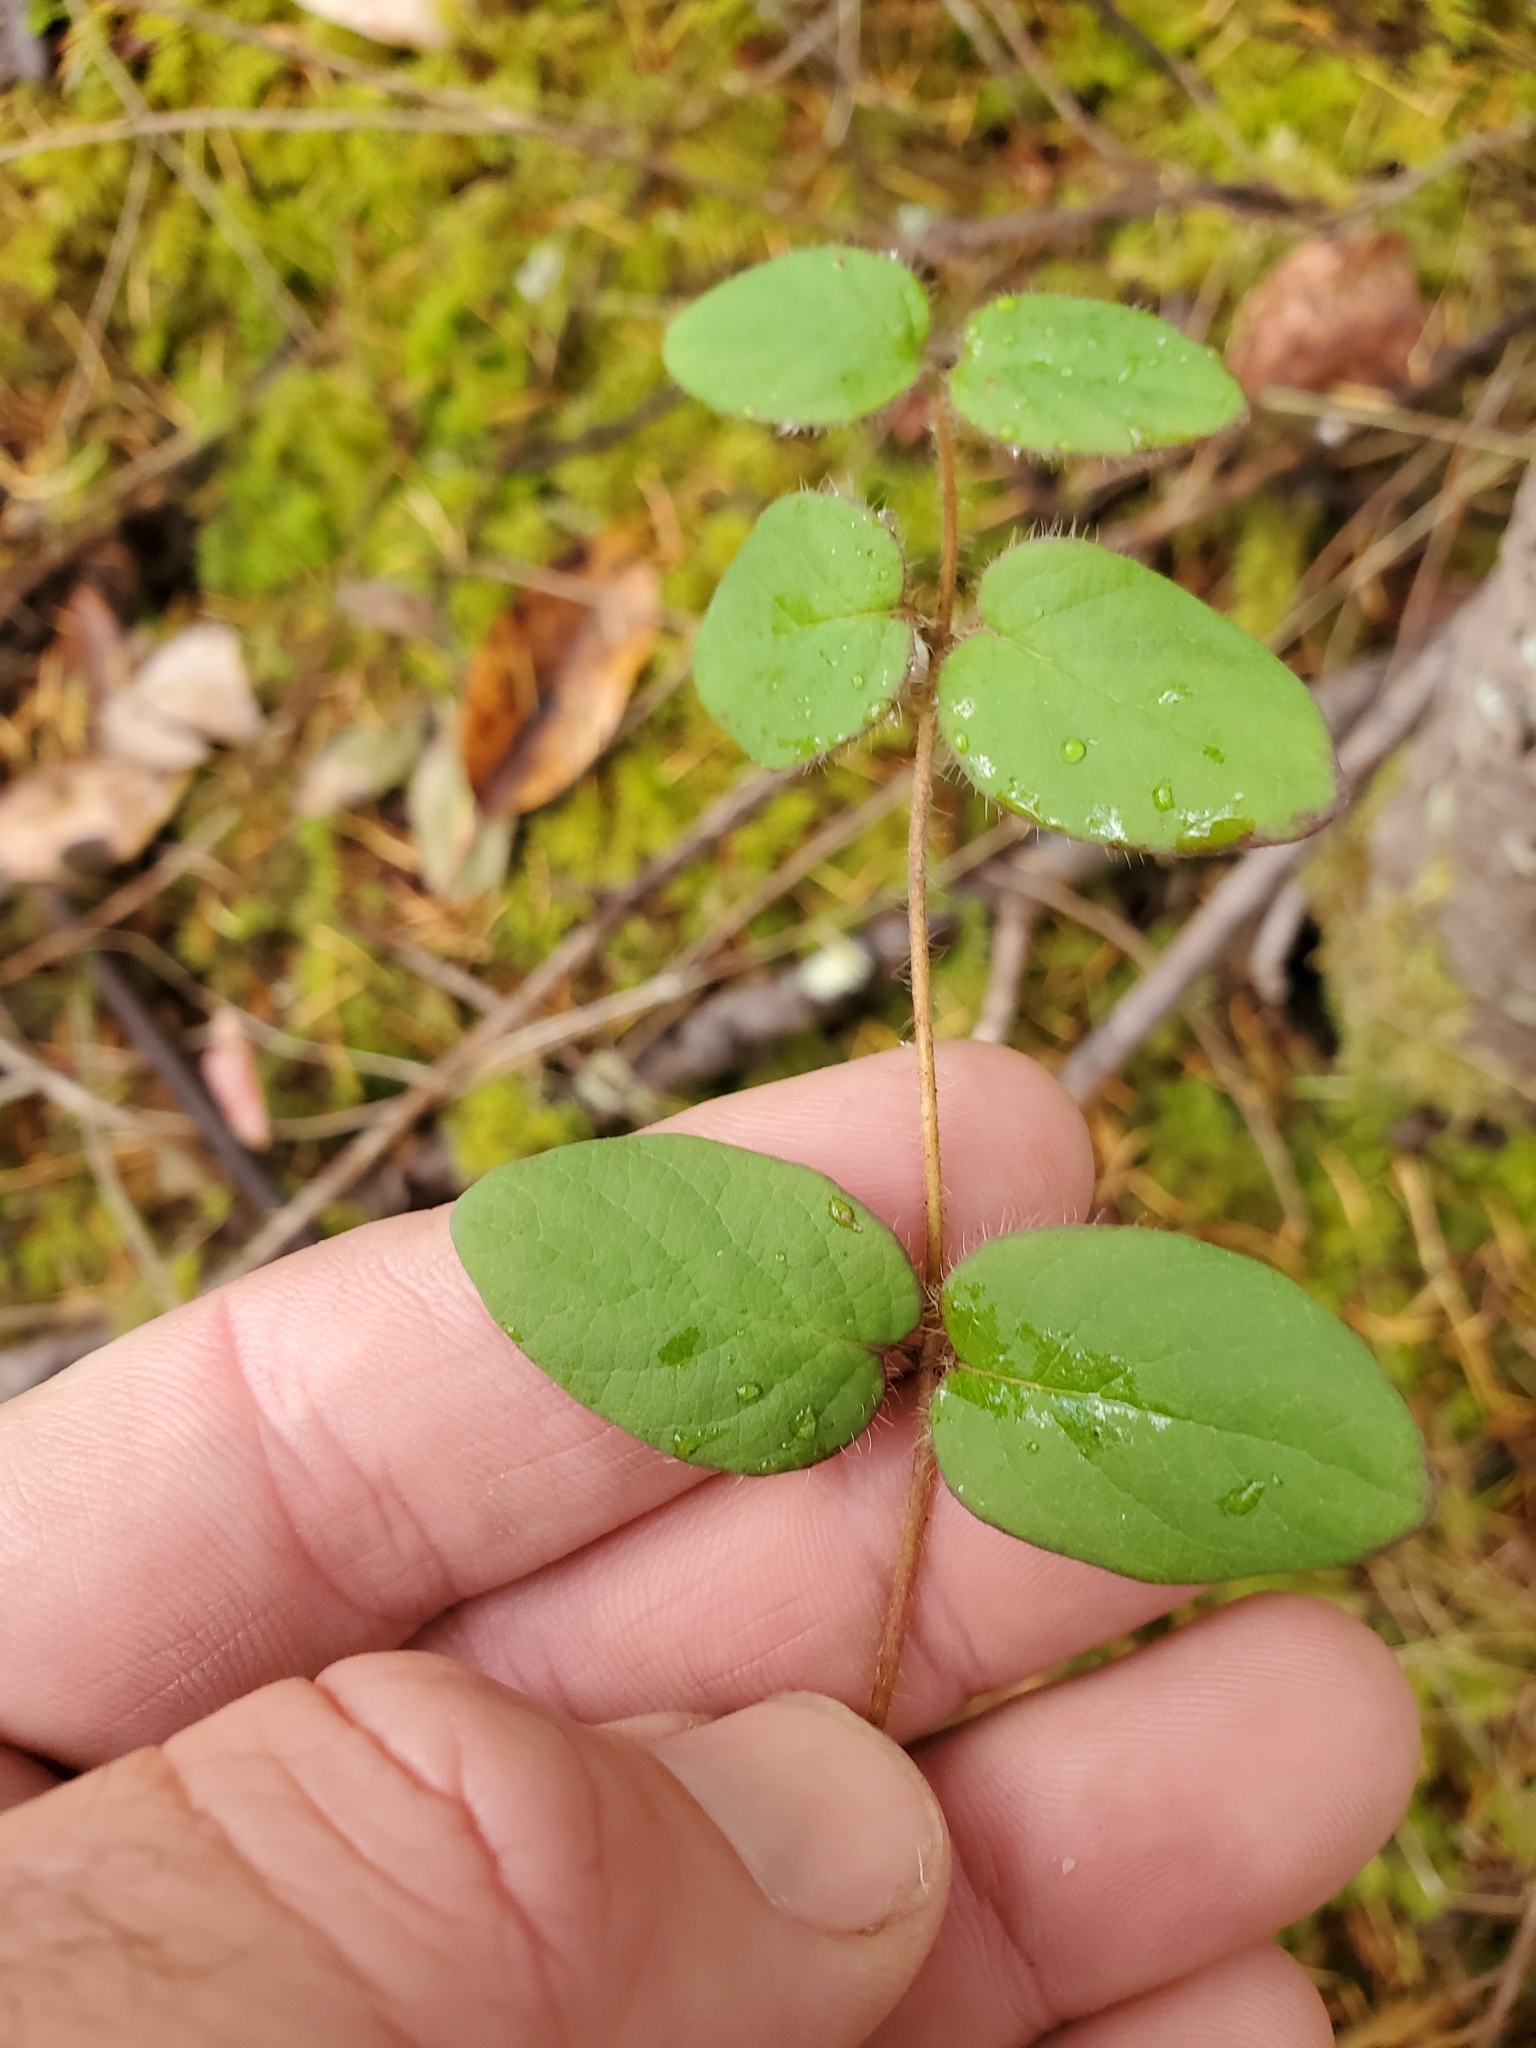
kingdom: Plantae
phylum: Tracheophyta
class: Magnoliopsida
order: Dipsacales
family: Caprifoliaceae
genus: Lonicera
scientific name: Lonicera hispidula
